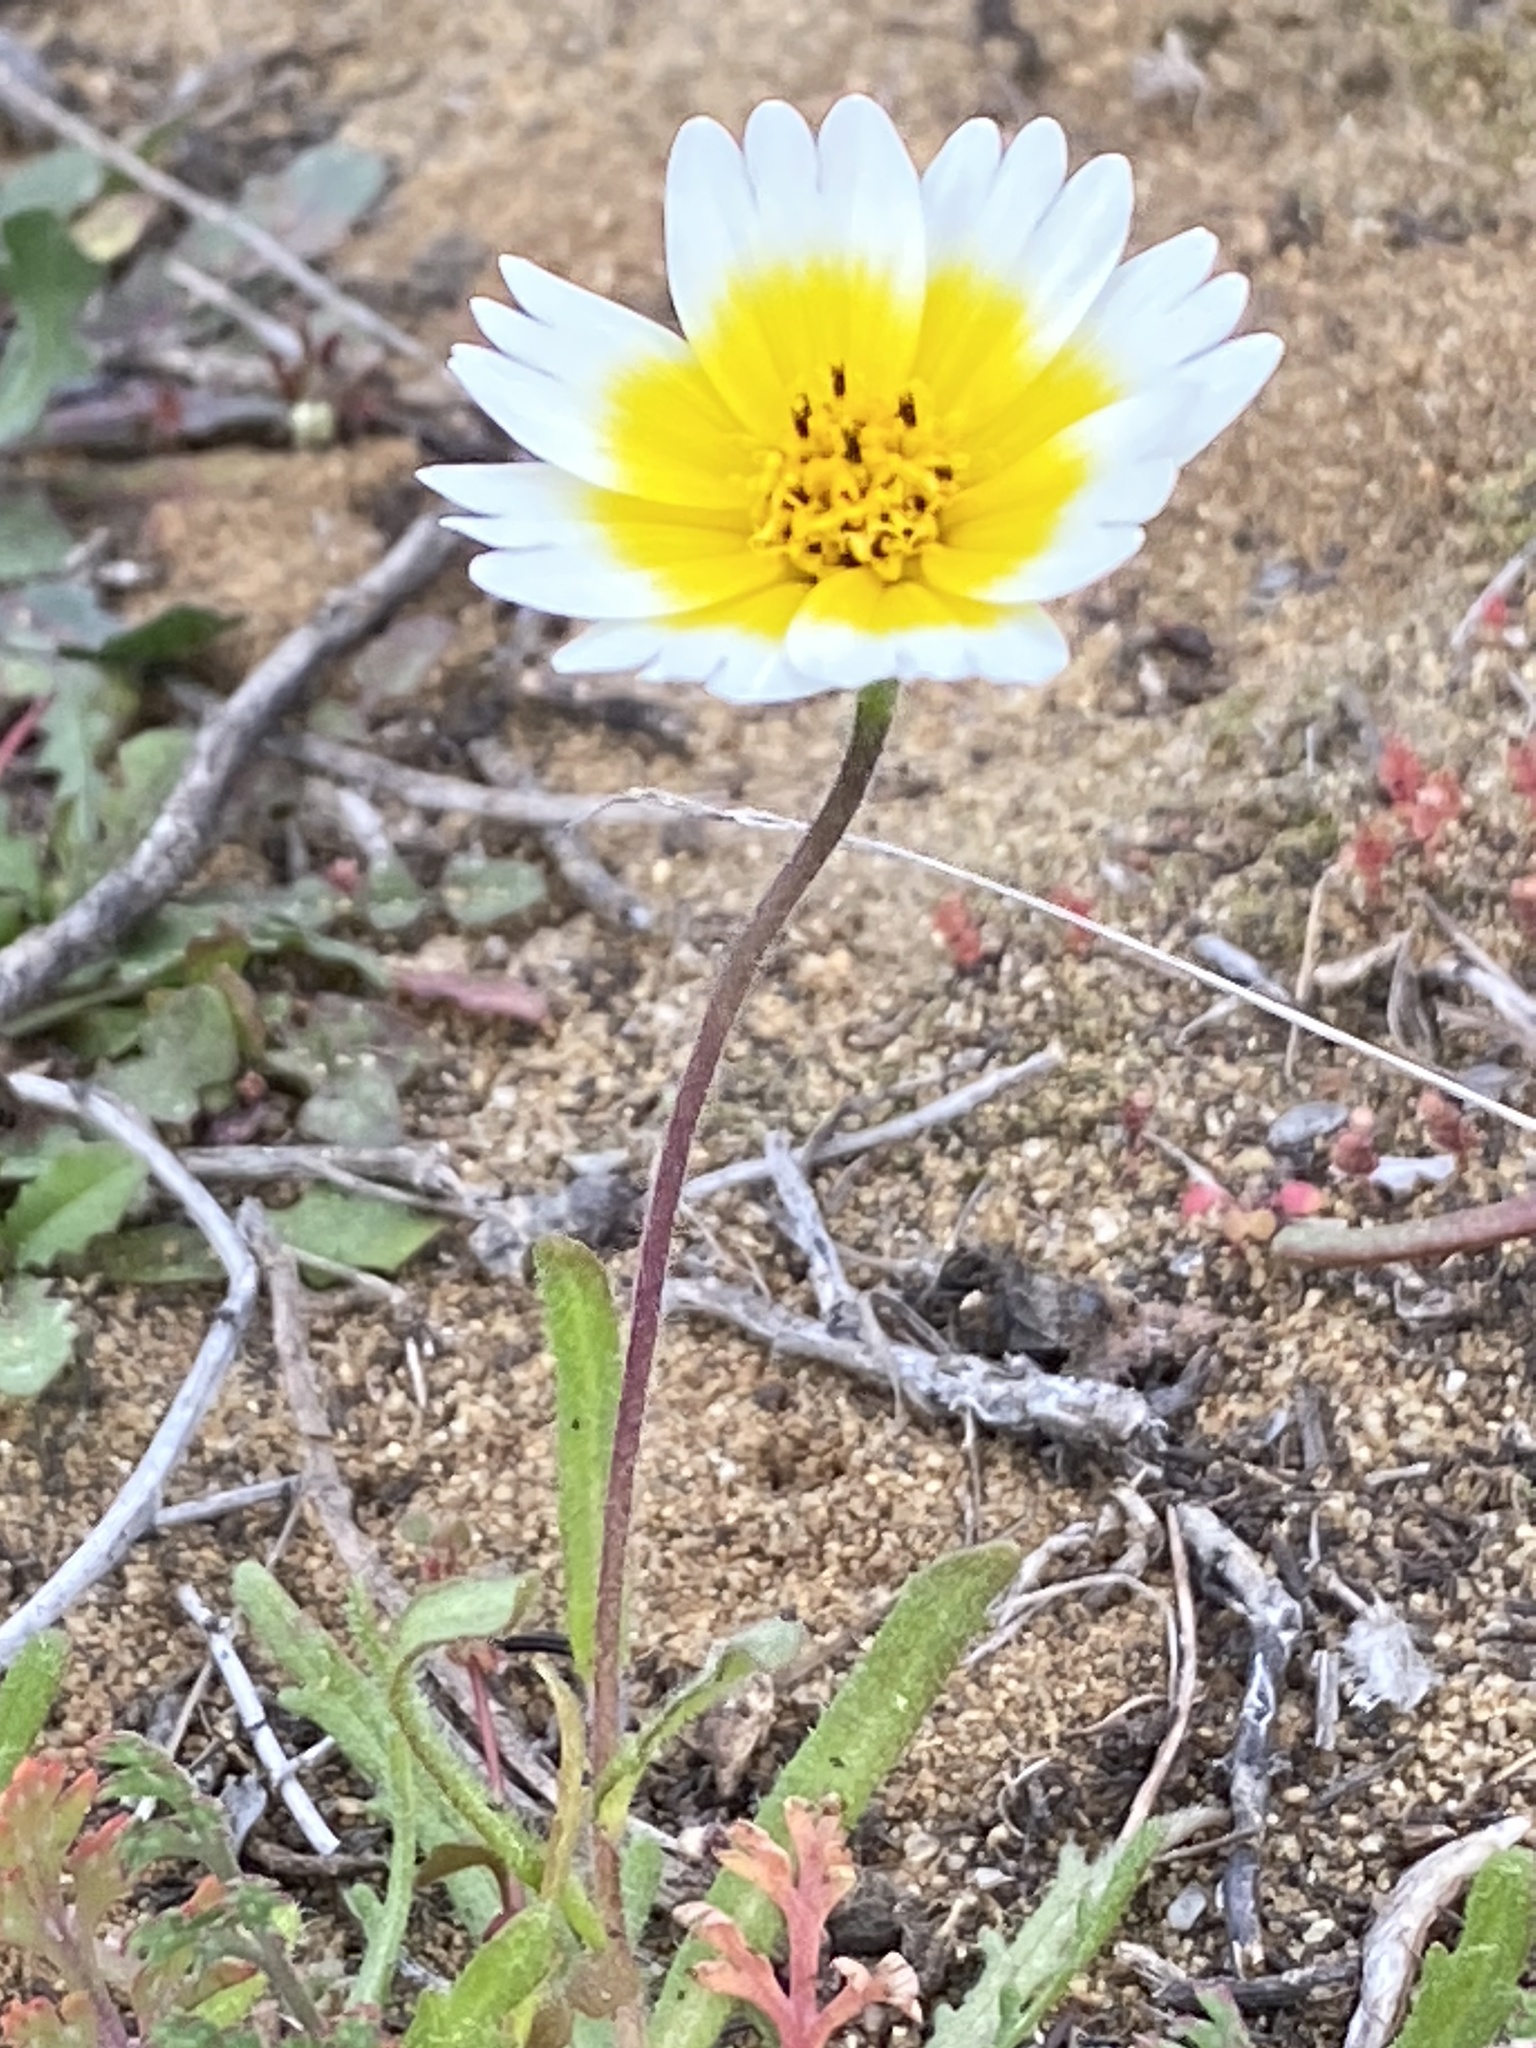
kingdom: Plantae
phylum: Tracheophyta
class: Magnoliopsida
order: Asterales
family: Asteraceae
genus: Layia
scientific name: Layia platyglossa
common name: Tidy-tips
